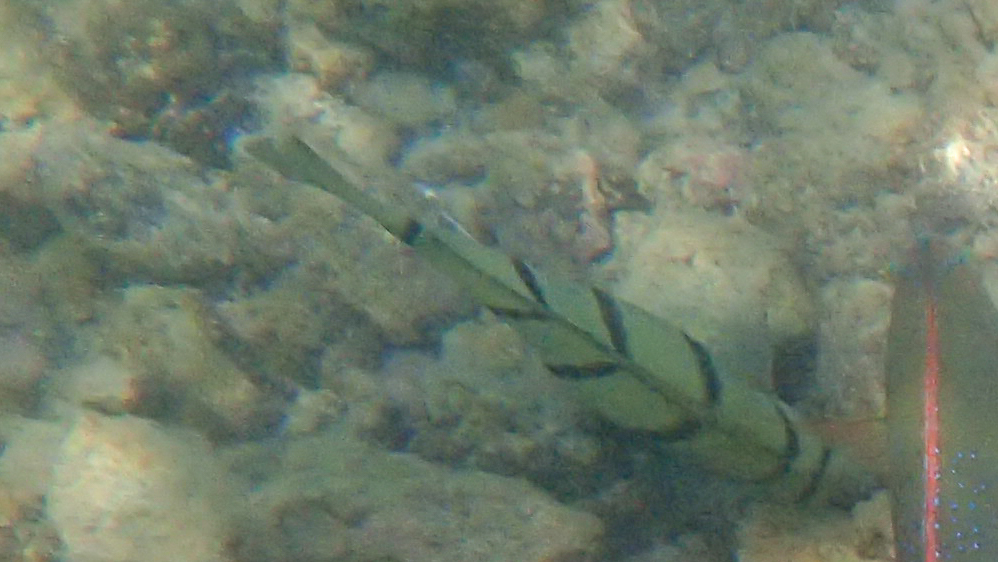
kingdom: Animalia
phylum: Chordata
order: Perciformes
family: Acanthuridae
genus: Acanthurus
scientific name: Acanthurus triostegus
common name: Convict surgeonfish
